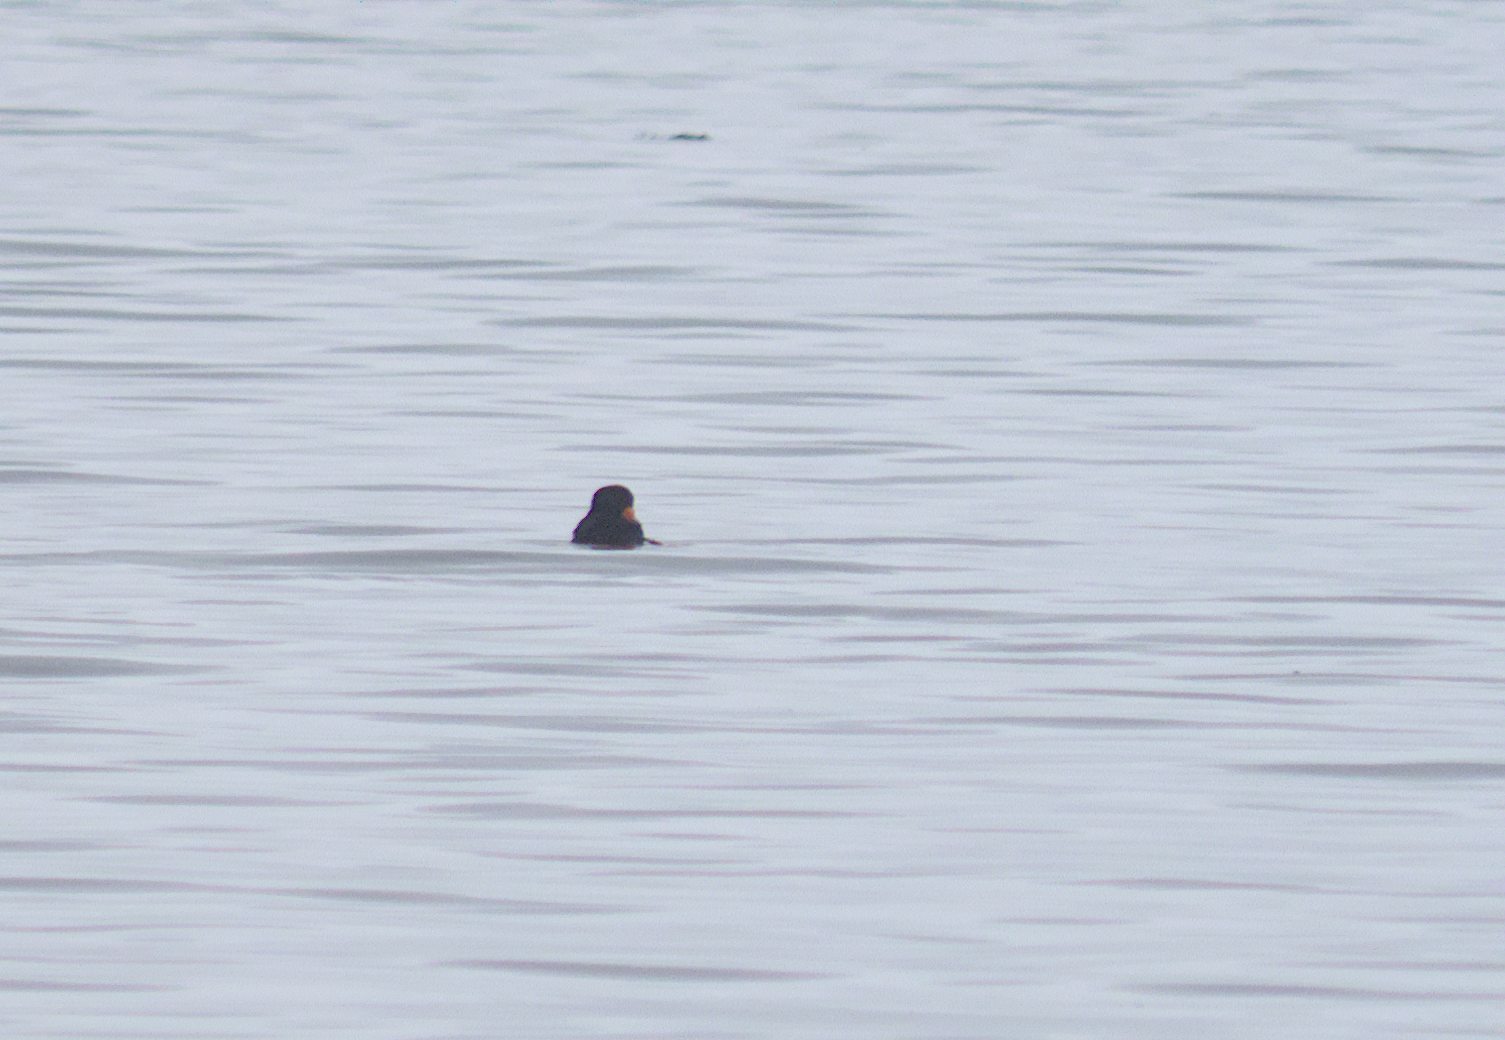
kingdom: Animalia
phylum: Chordata
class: Aves
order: Anseriformes
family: Anatidae
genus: Melanitta
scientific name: Melanitta americana
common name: Black scoter
